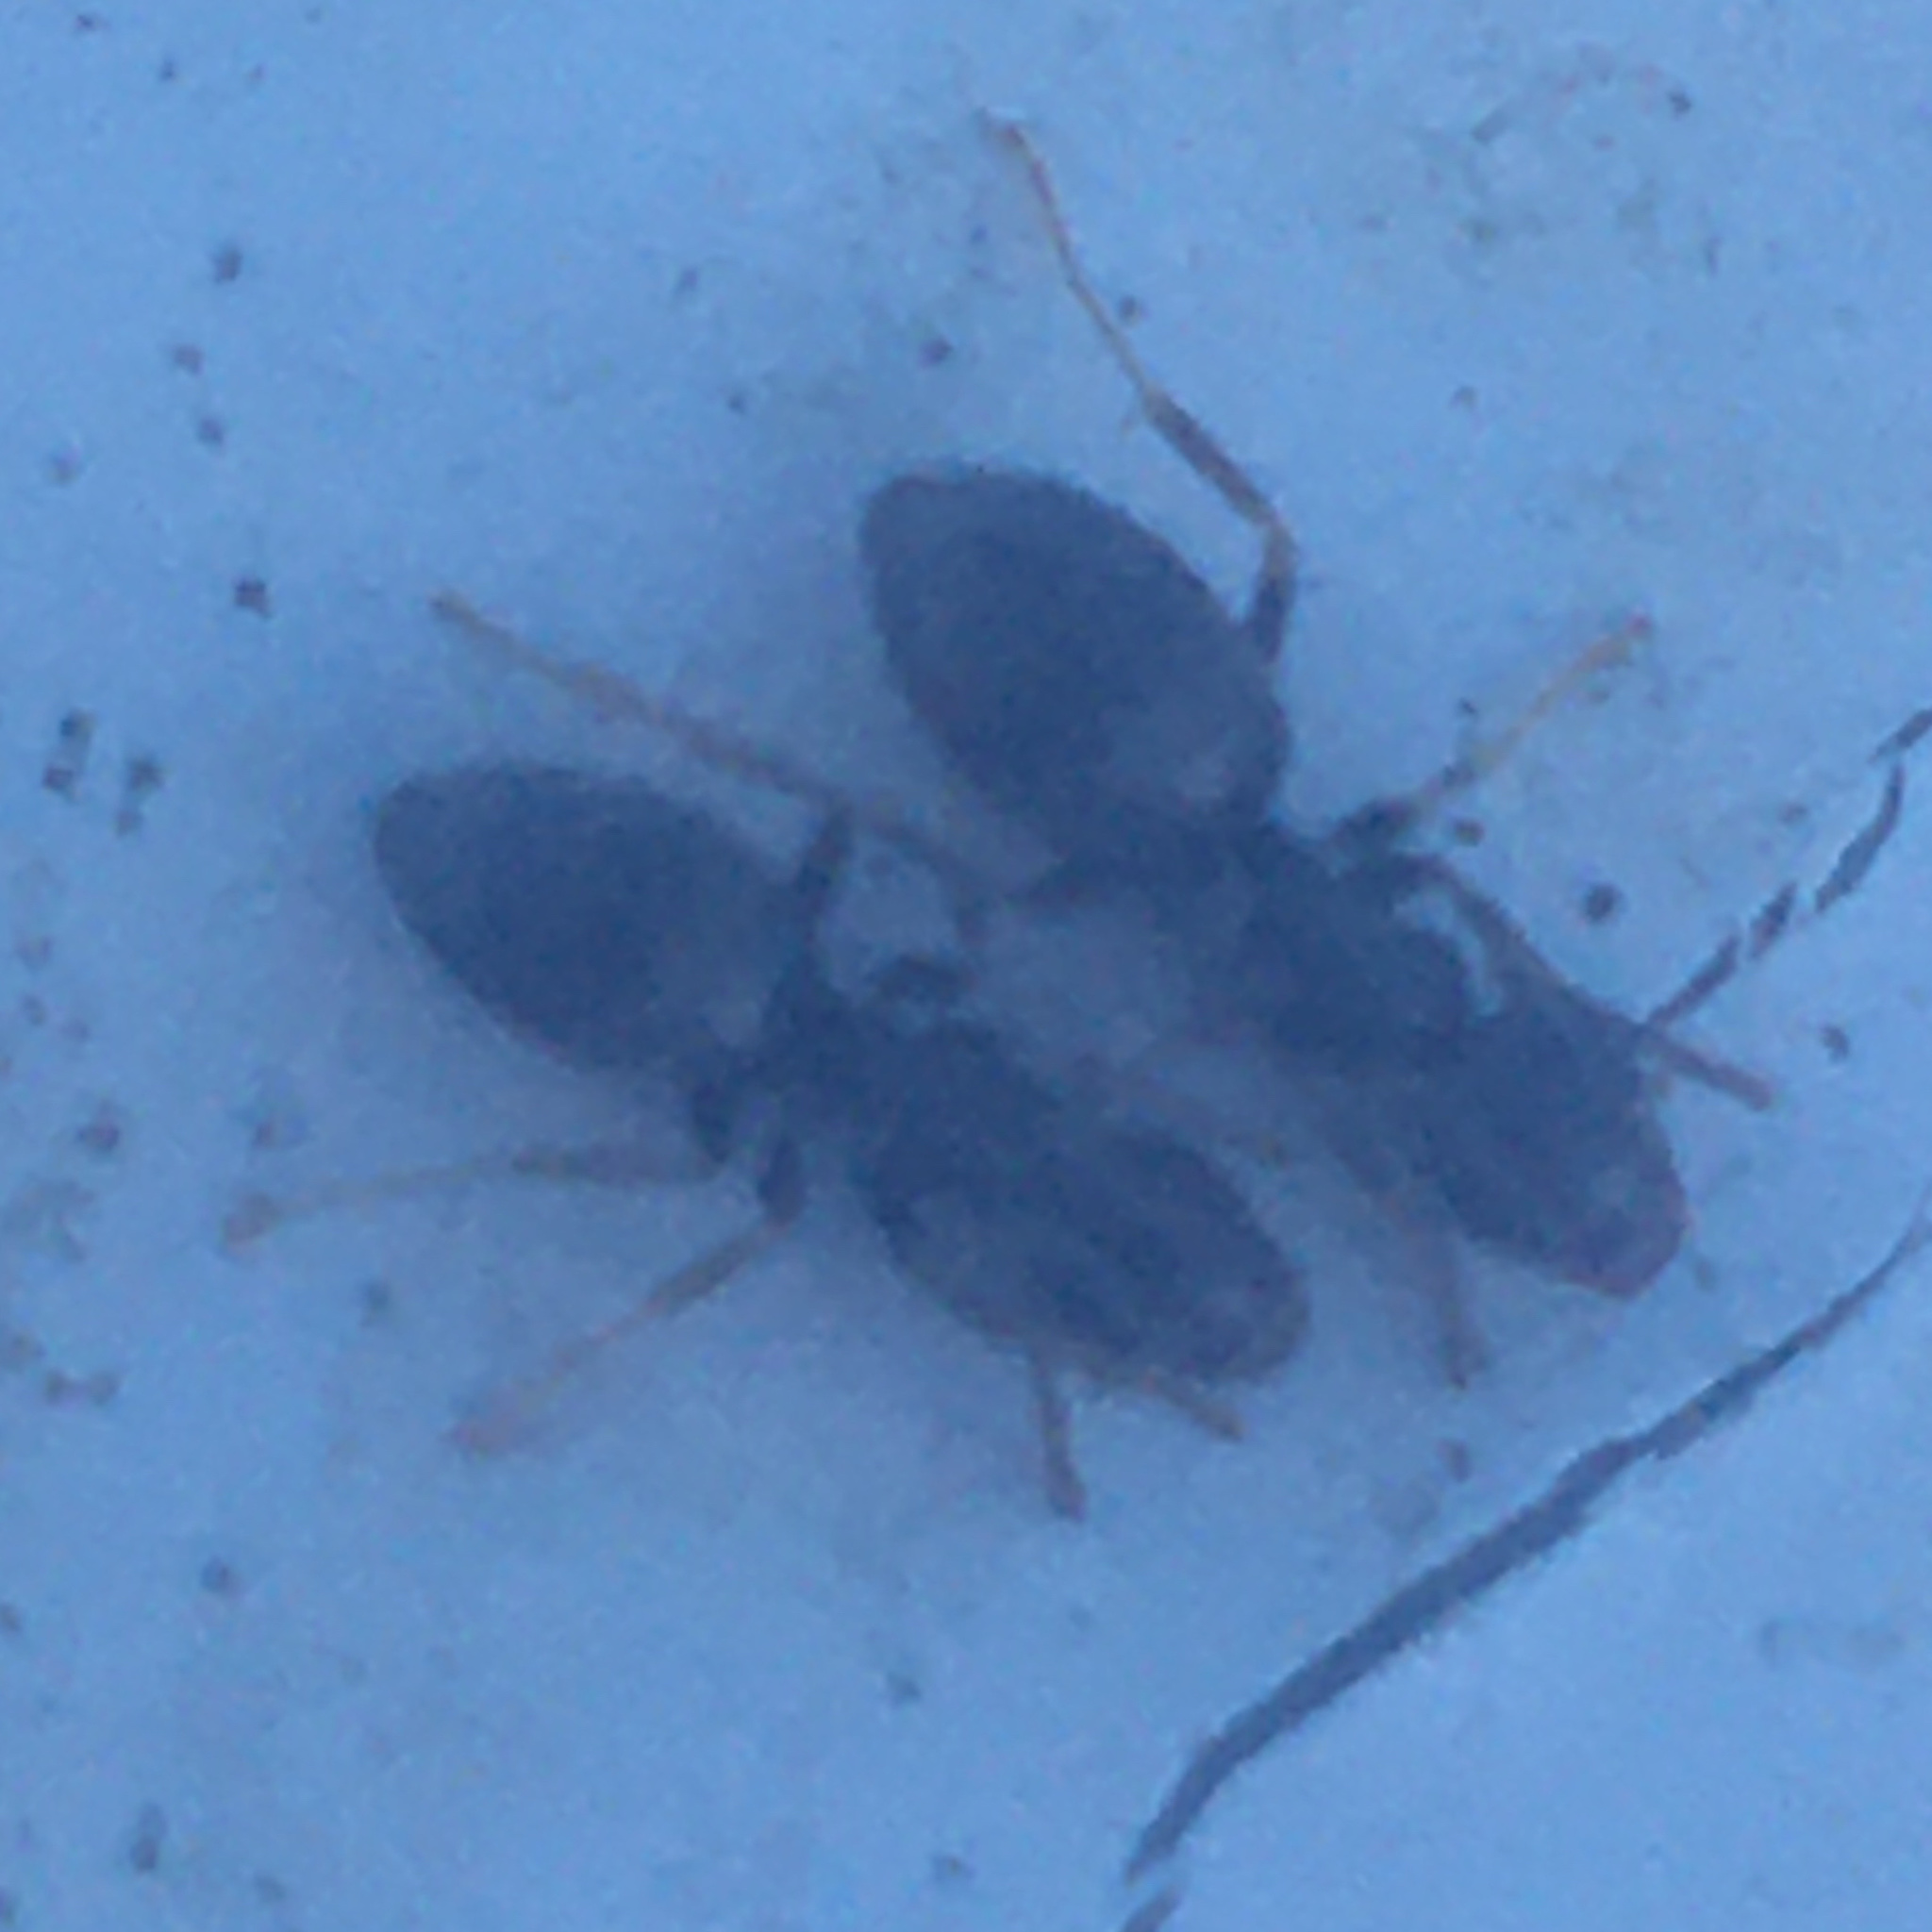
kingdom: Animalia
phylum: Arthropoda
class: Insecta
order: Hymenoptera
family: Formicidae
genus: Tapinoma
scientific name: Tapinoma sessile
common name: Odorous house ant
